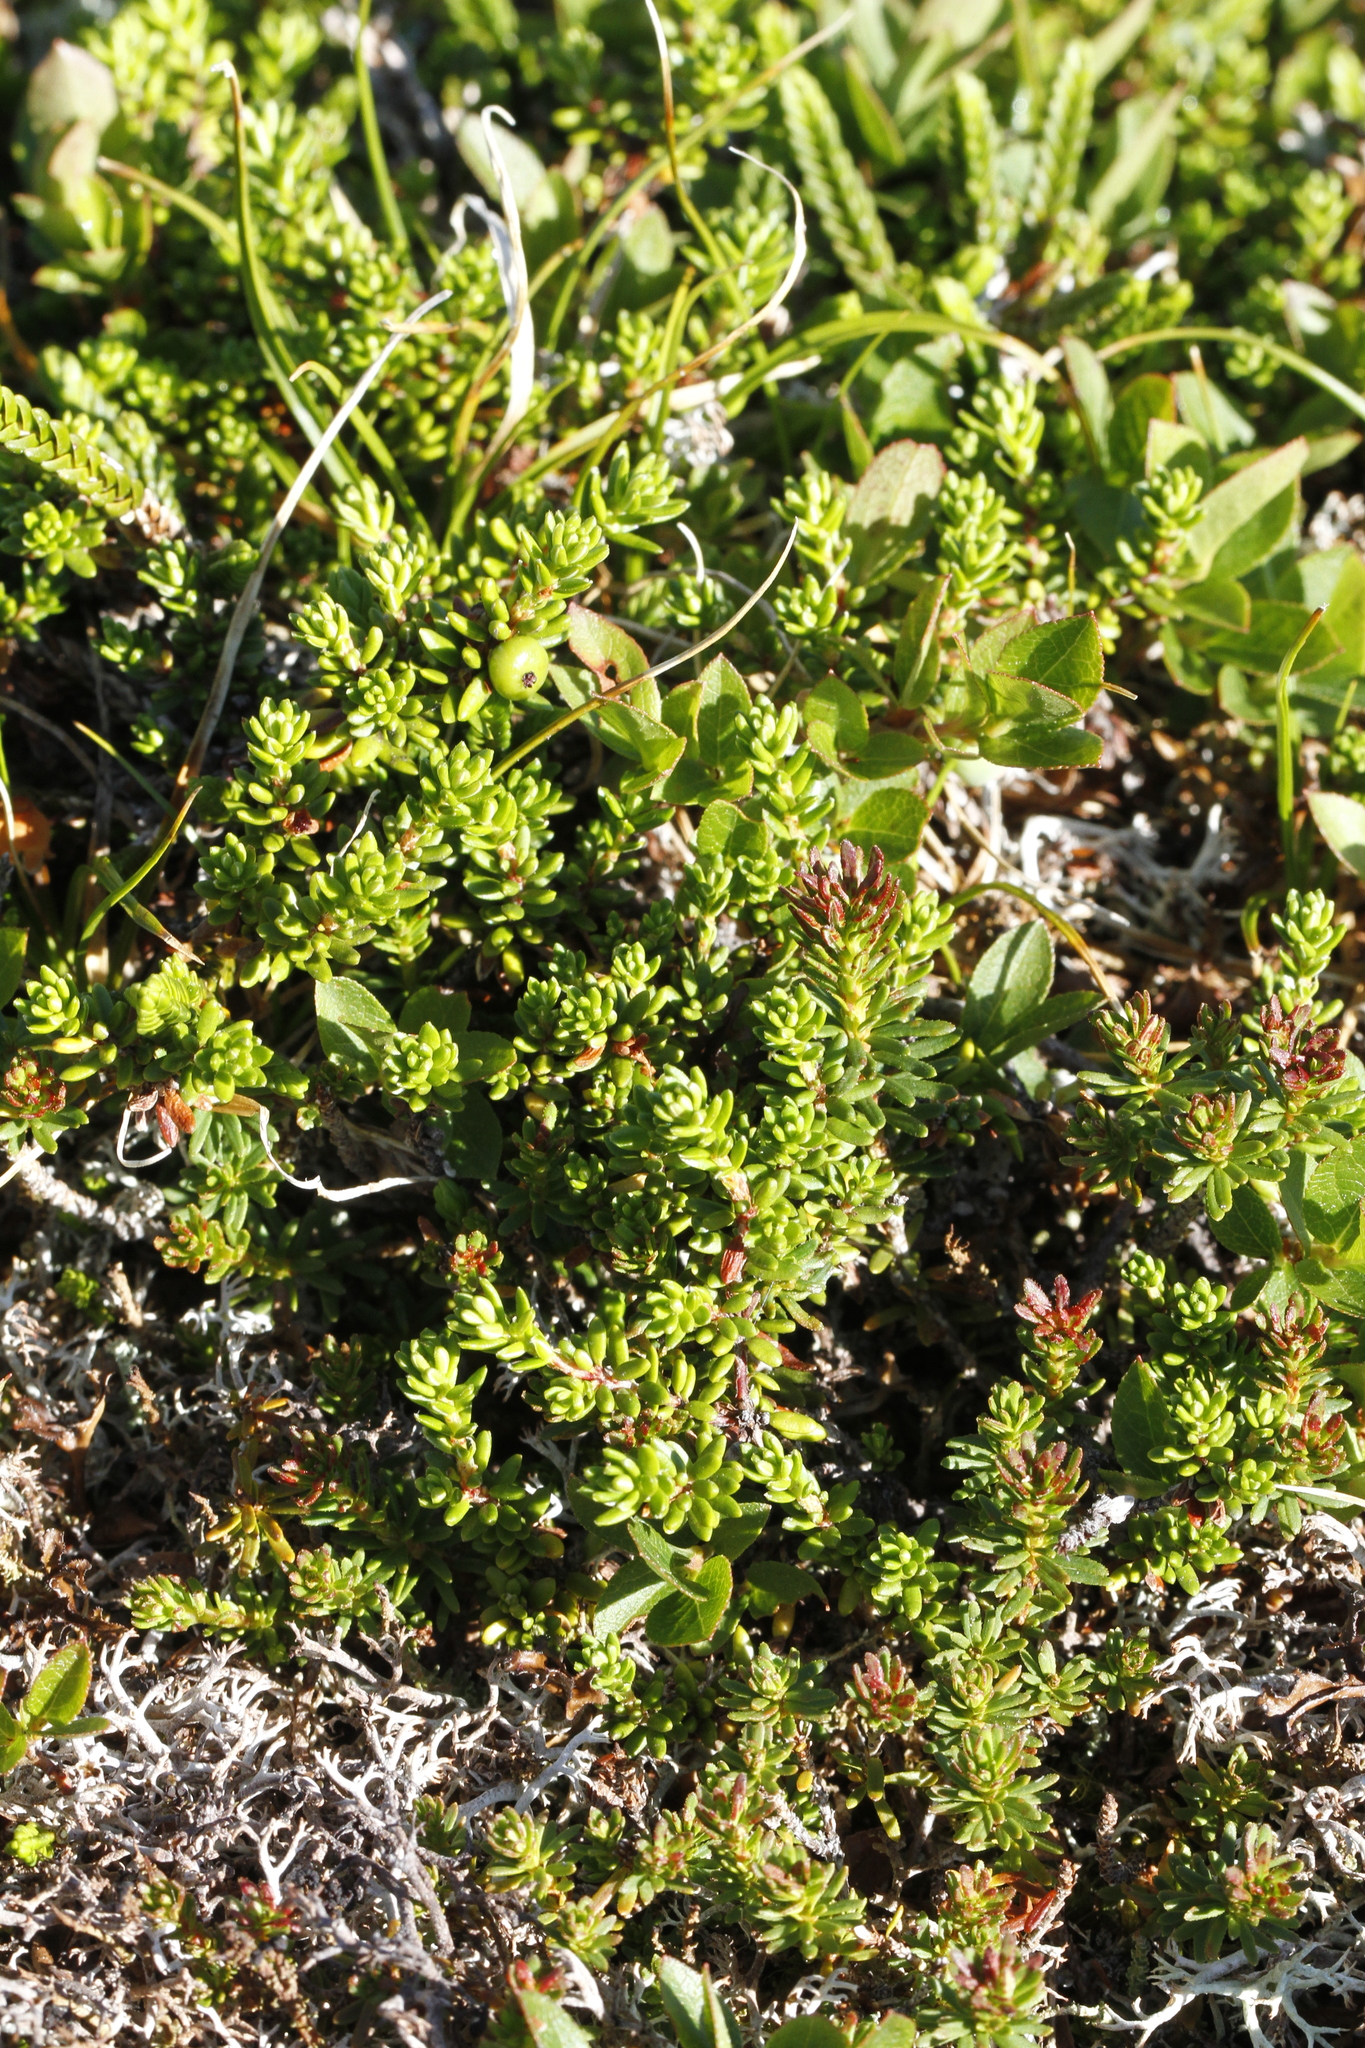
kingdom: Plantae
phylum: Tracheophyta
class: Magnoliopsida
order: Ericales
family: Ericaceae
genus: Empetrum
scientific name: Empetrum nigrum
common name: Black crowberry
